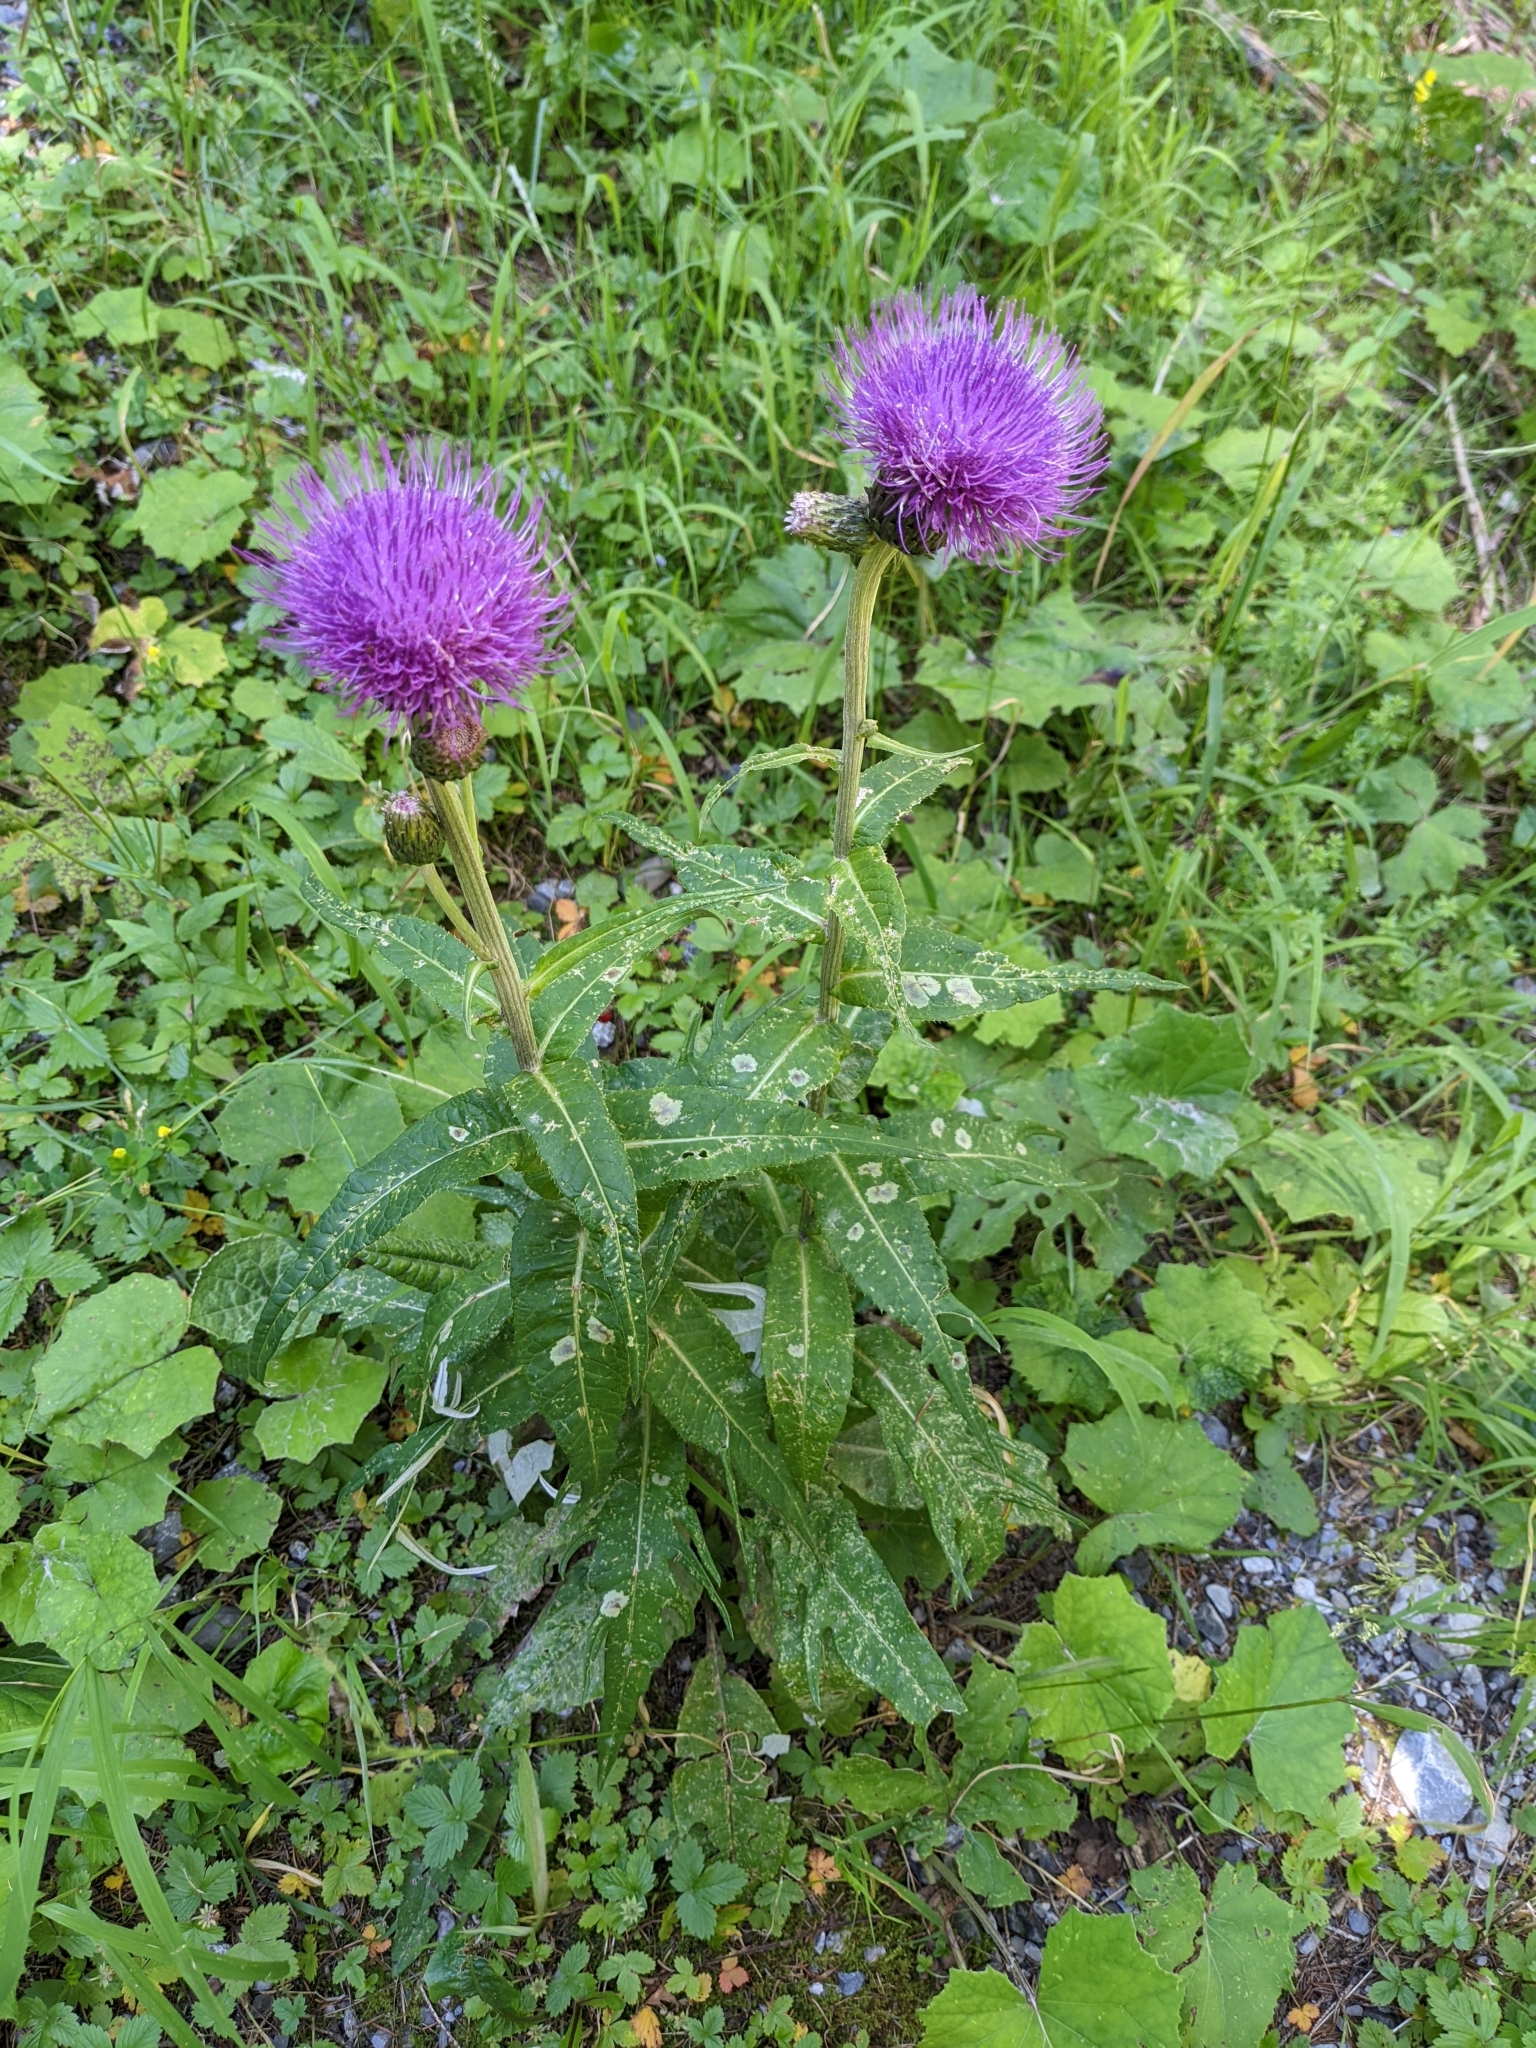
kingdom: Plantae
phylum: Tracheophyta
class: Magnoliopsida
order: Asterales
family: Asteraceae
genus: Cirsium
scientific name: Cirsium heterophyllum
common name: Melancholy thistle
